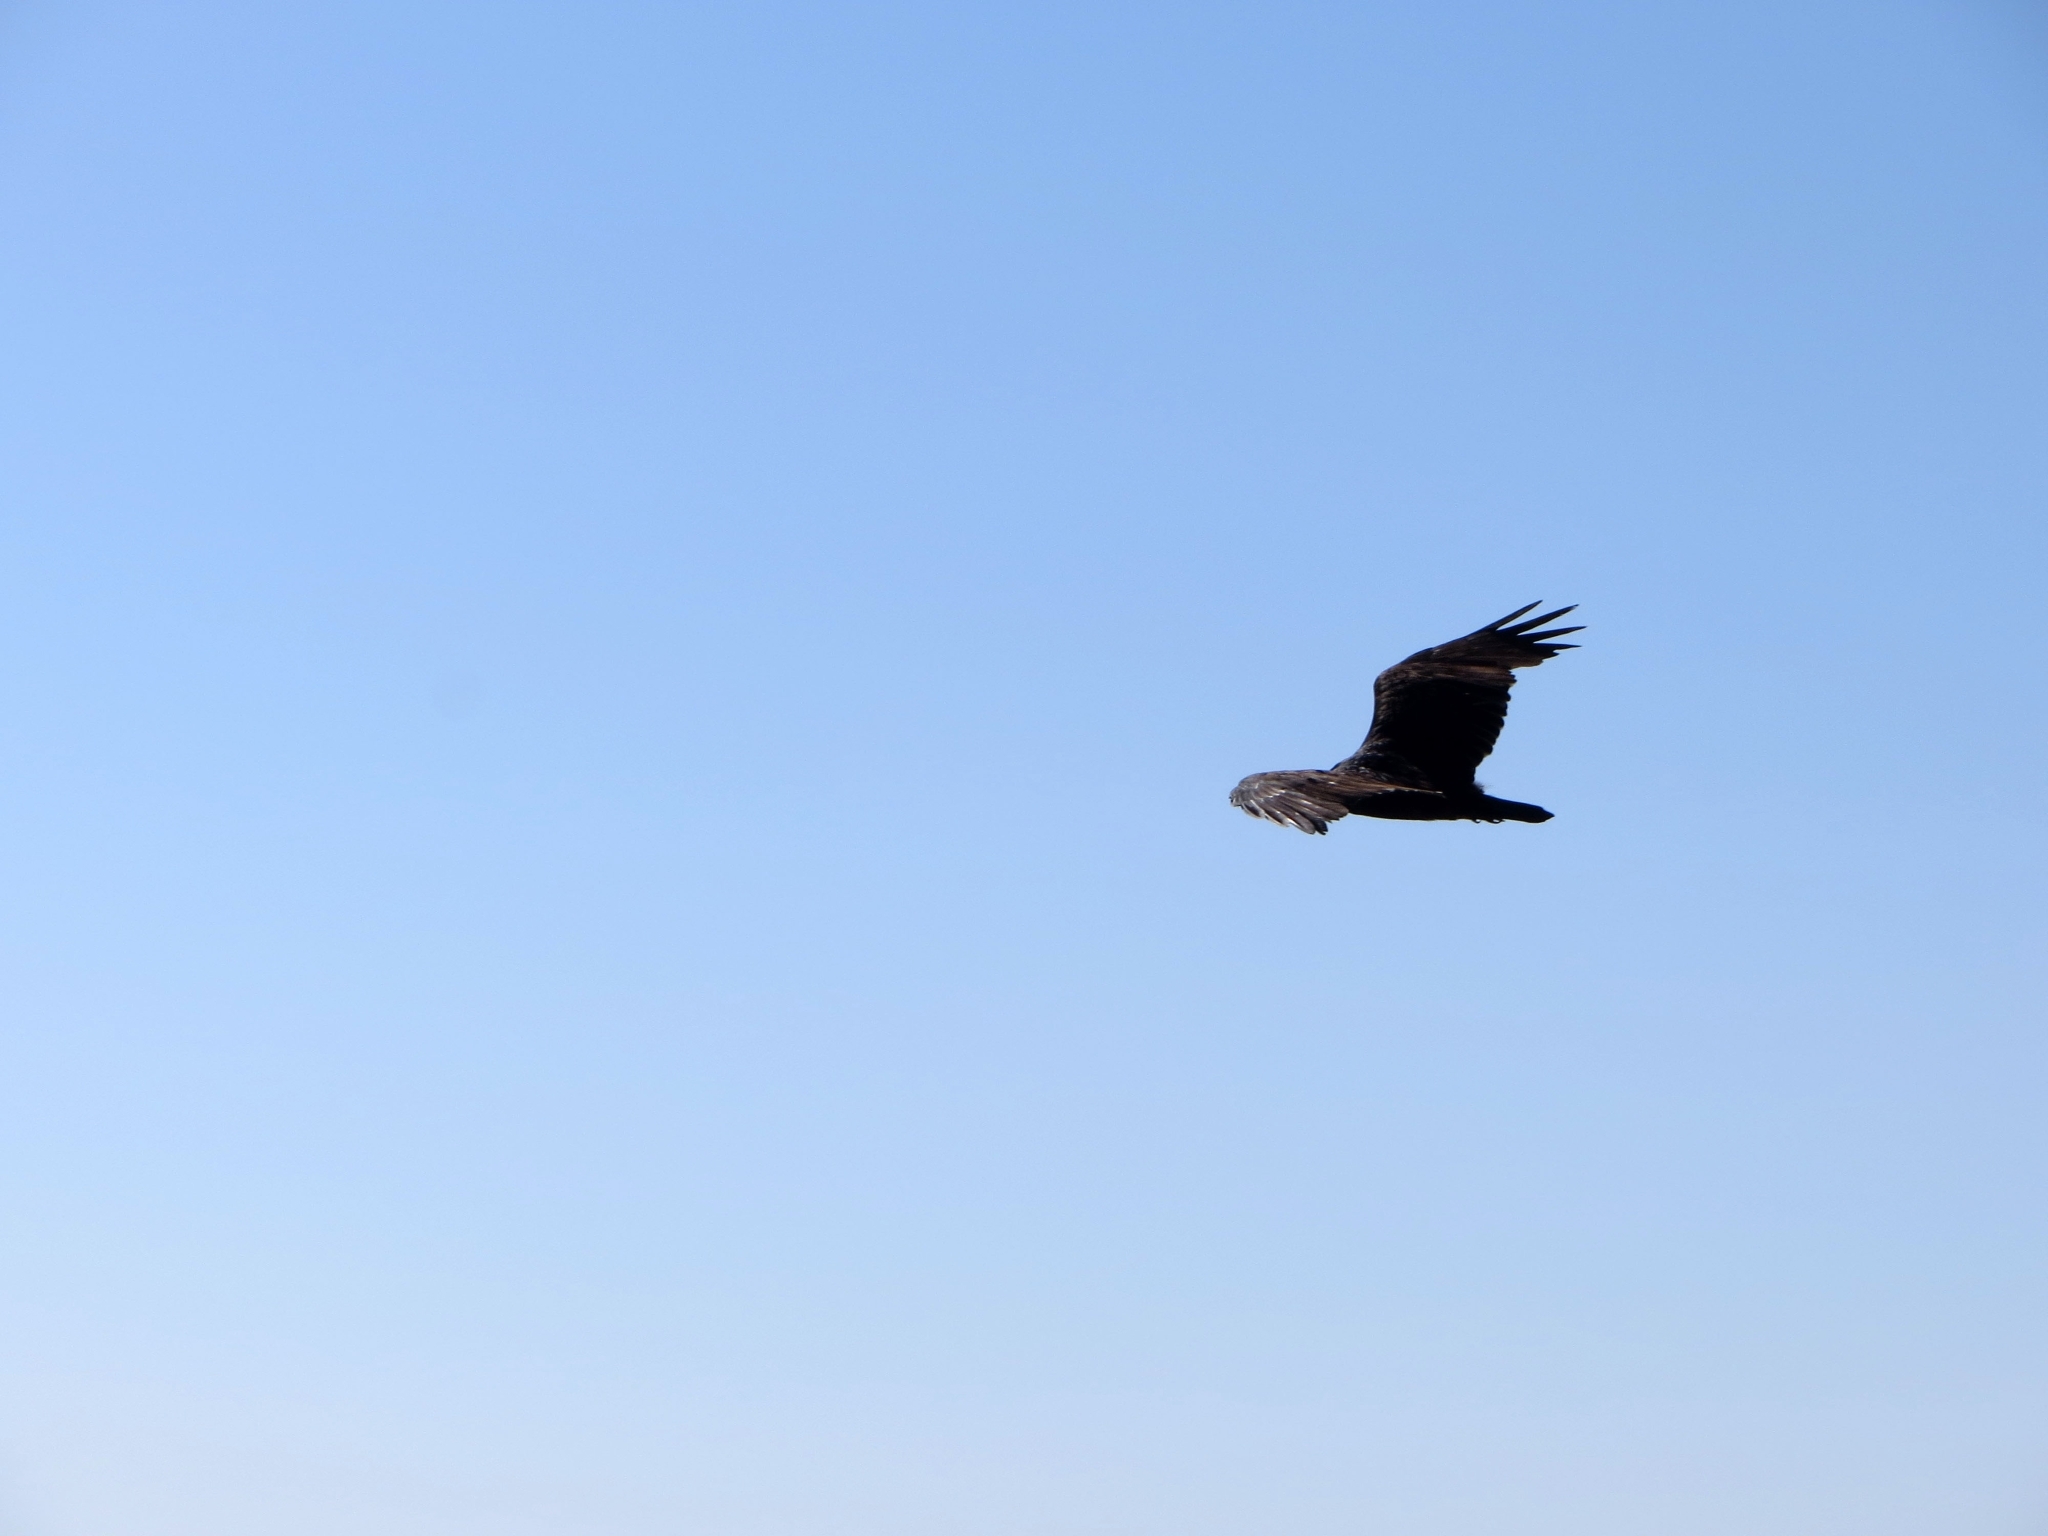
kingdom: Animalia
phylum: Chordata
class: Aves
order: Accipitriformes
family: Cathartidae
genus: Cathartes
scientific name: Cathartes aura
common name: Turkey vulture
